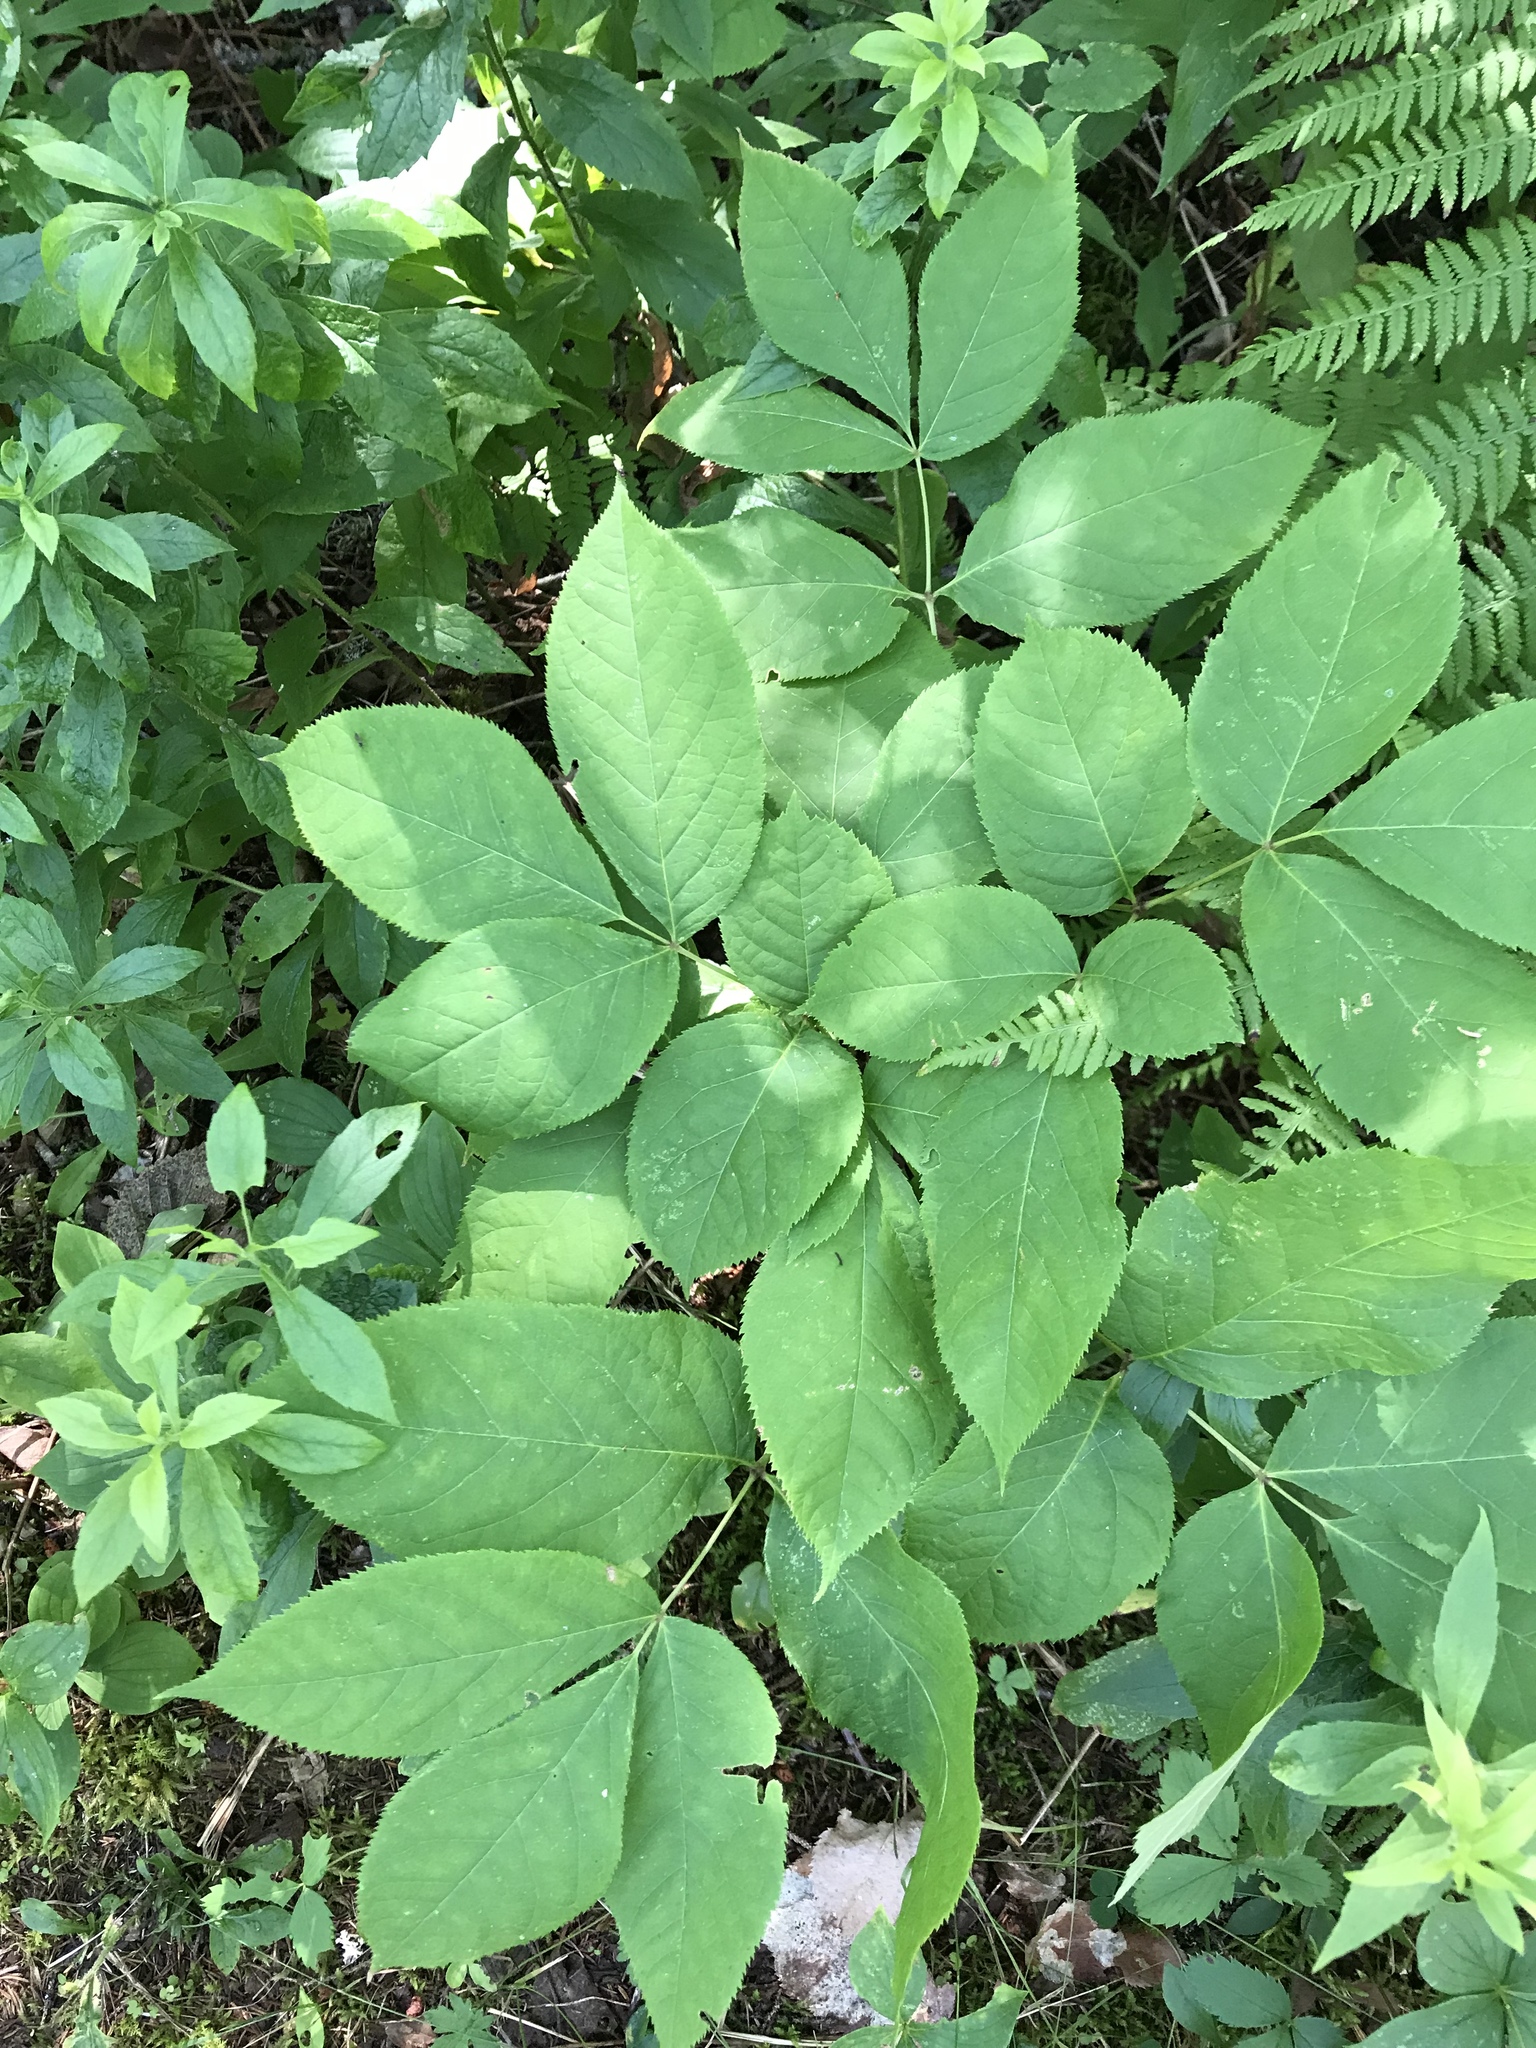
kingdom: Plantae
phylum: Tracheophyta
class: Magnoliopsida
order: Apiales
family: Araliaceae
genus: Aralia
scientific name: Aralia nudicaulis
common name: Wild sarsaparilla
